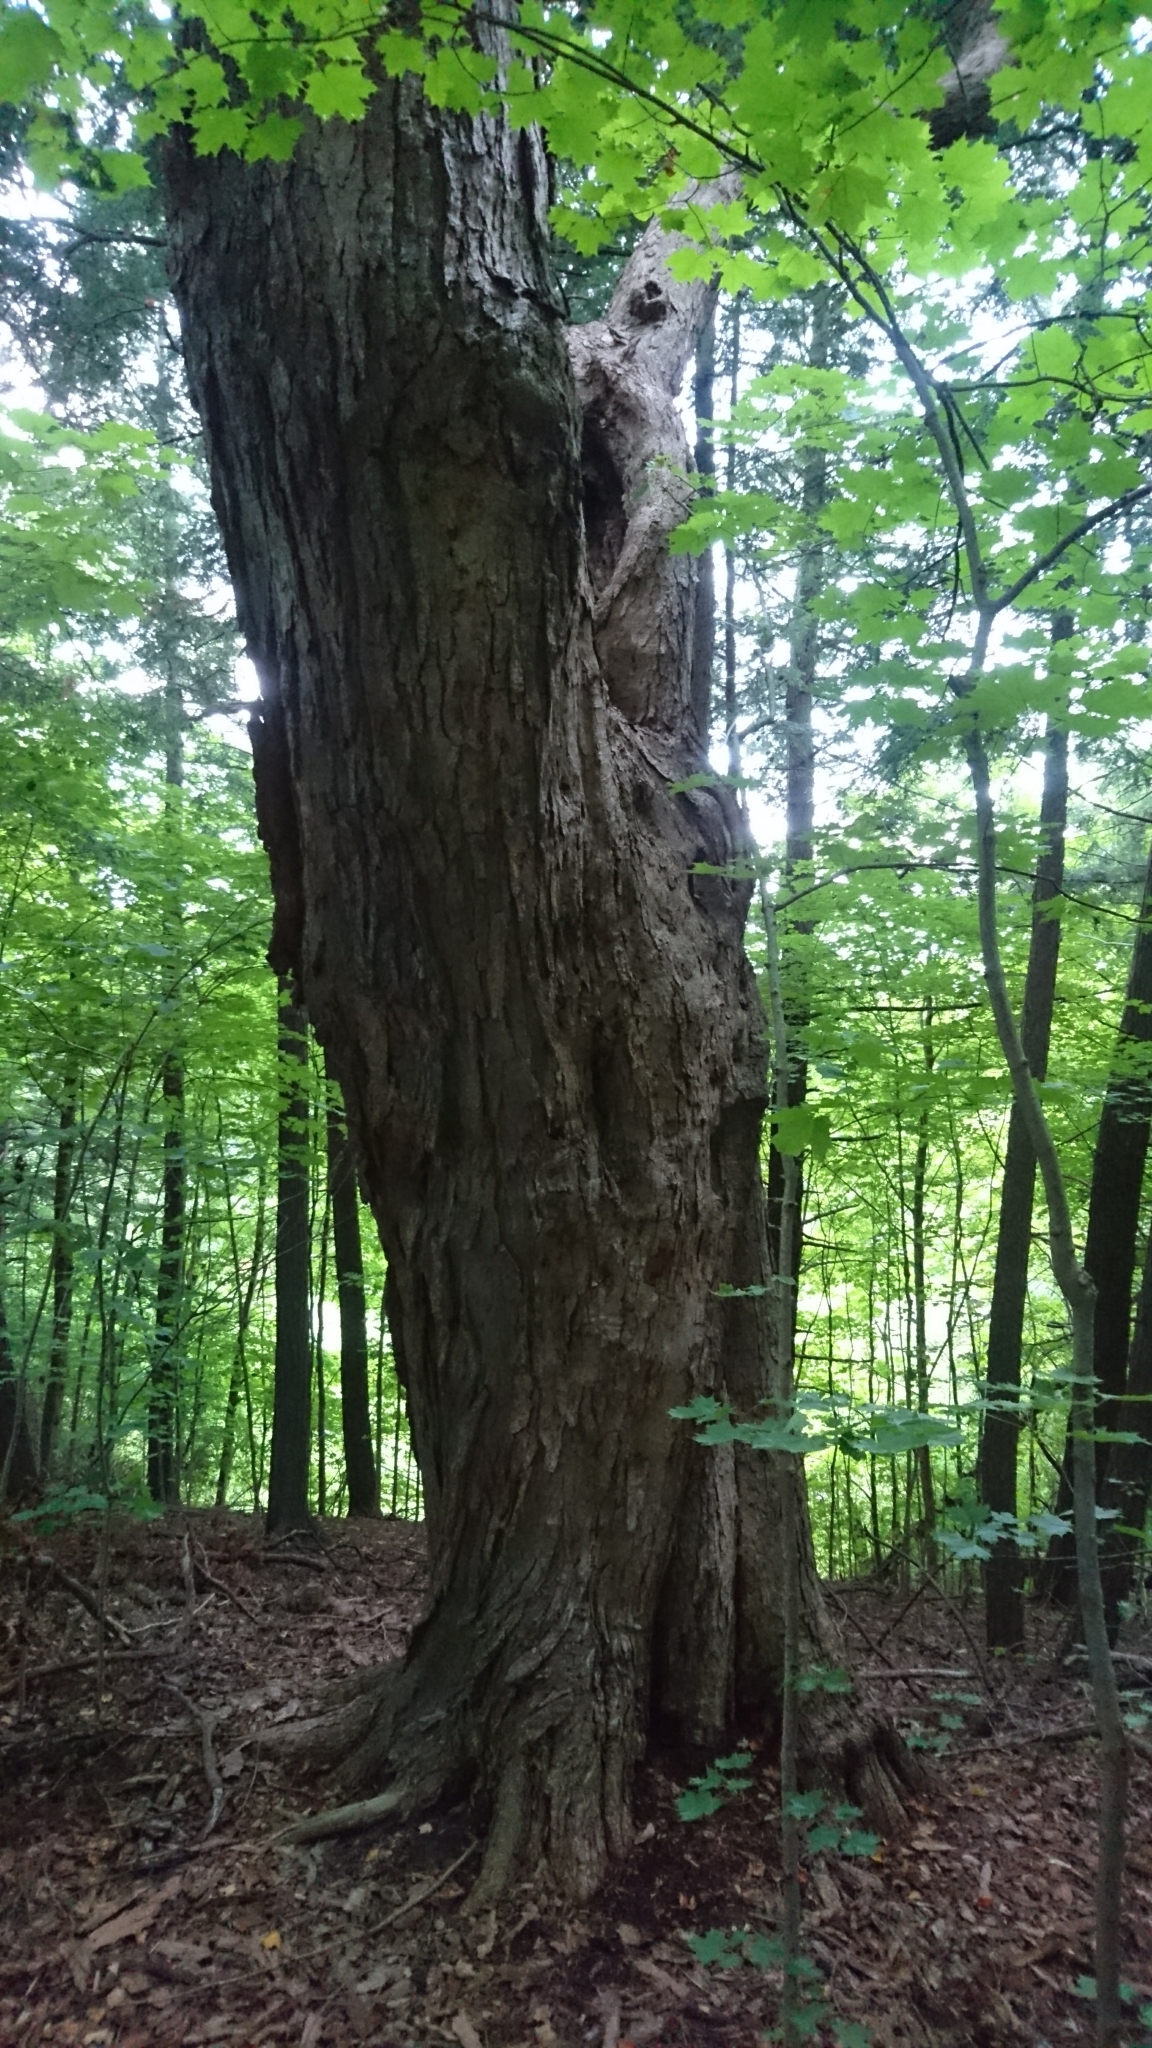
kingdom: Plantae
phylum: Tracheophyta
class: Magnoliopsida
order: Sapindales
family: Sapindaceae
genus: Acer
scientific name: Acer saccharum
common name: Sugar maple
